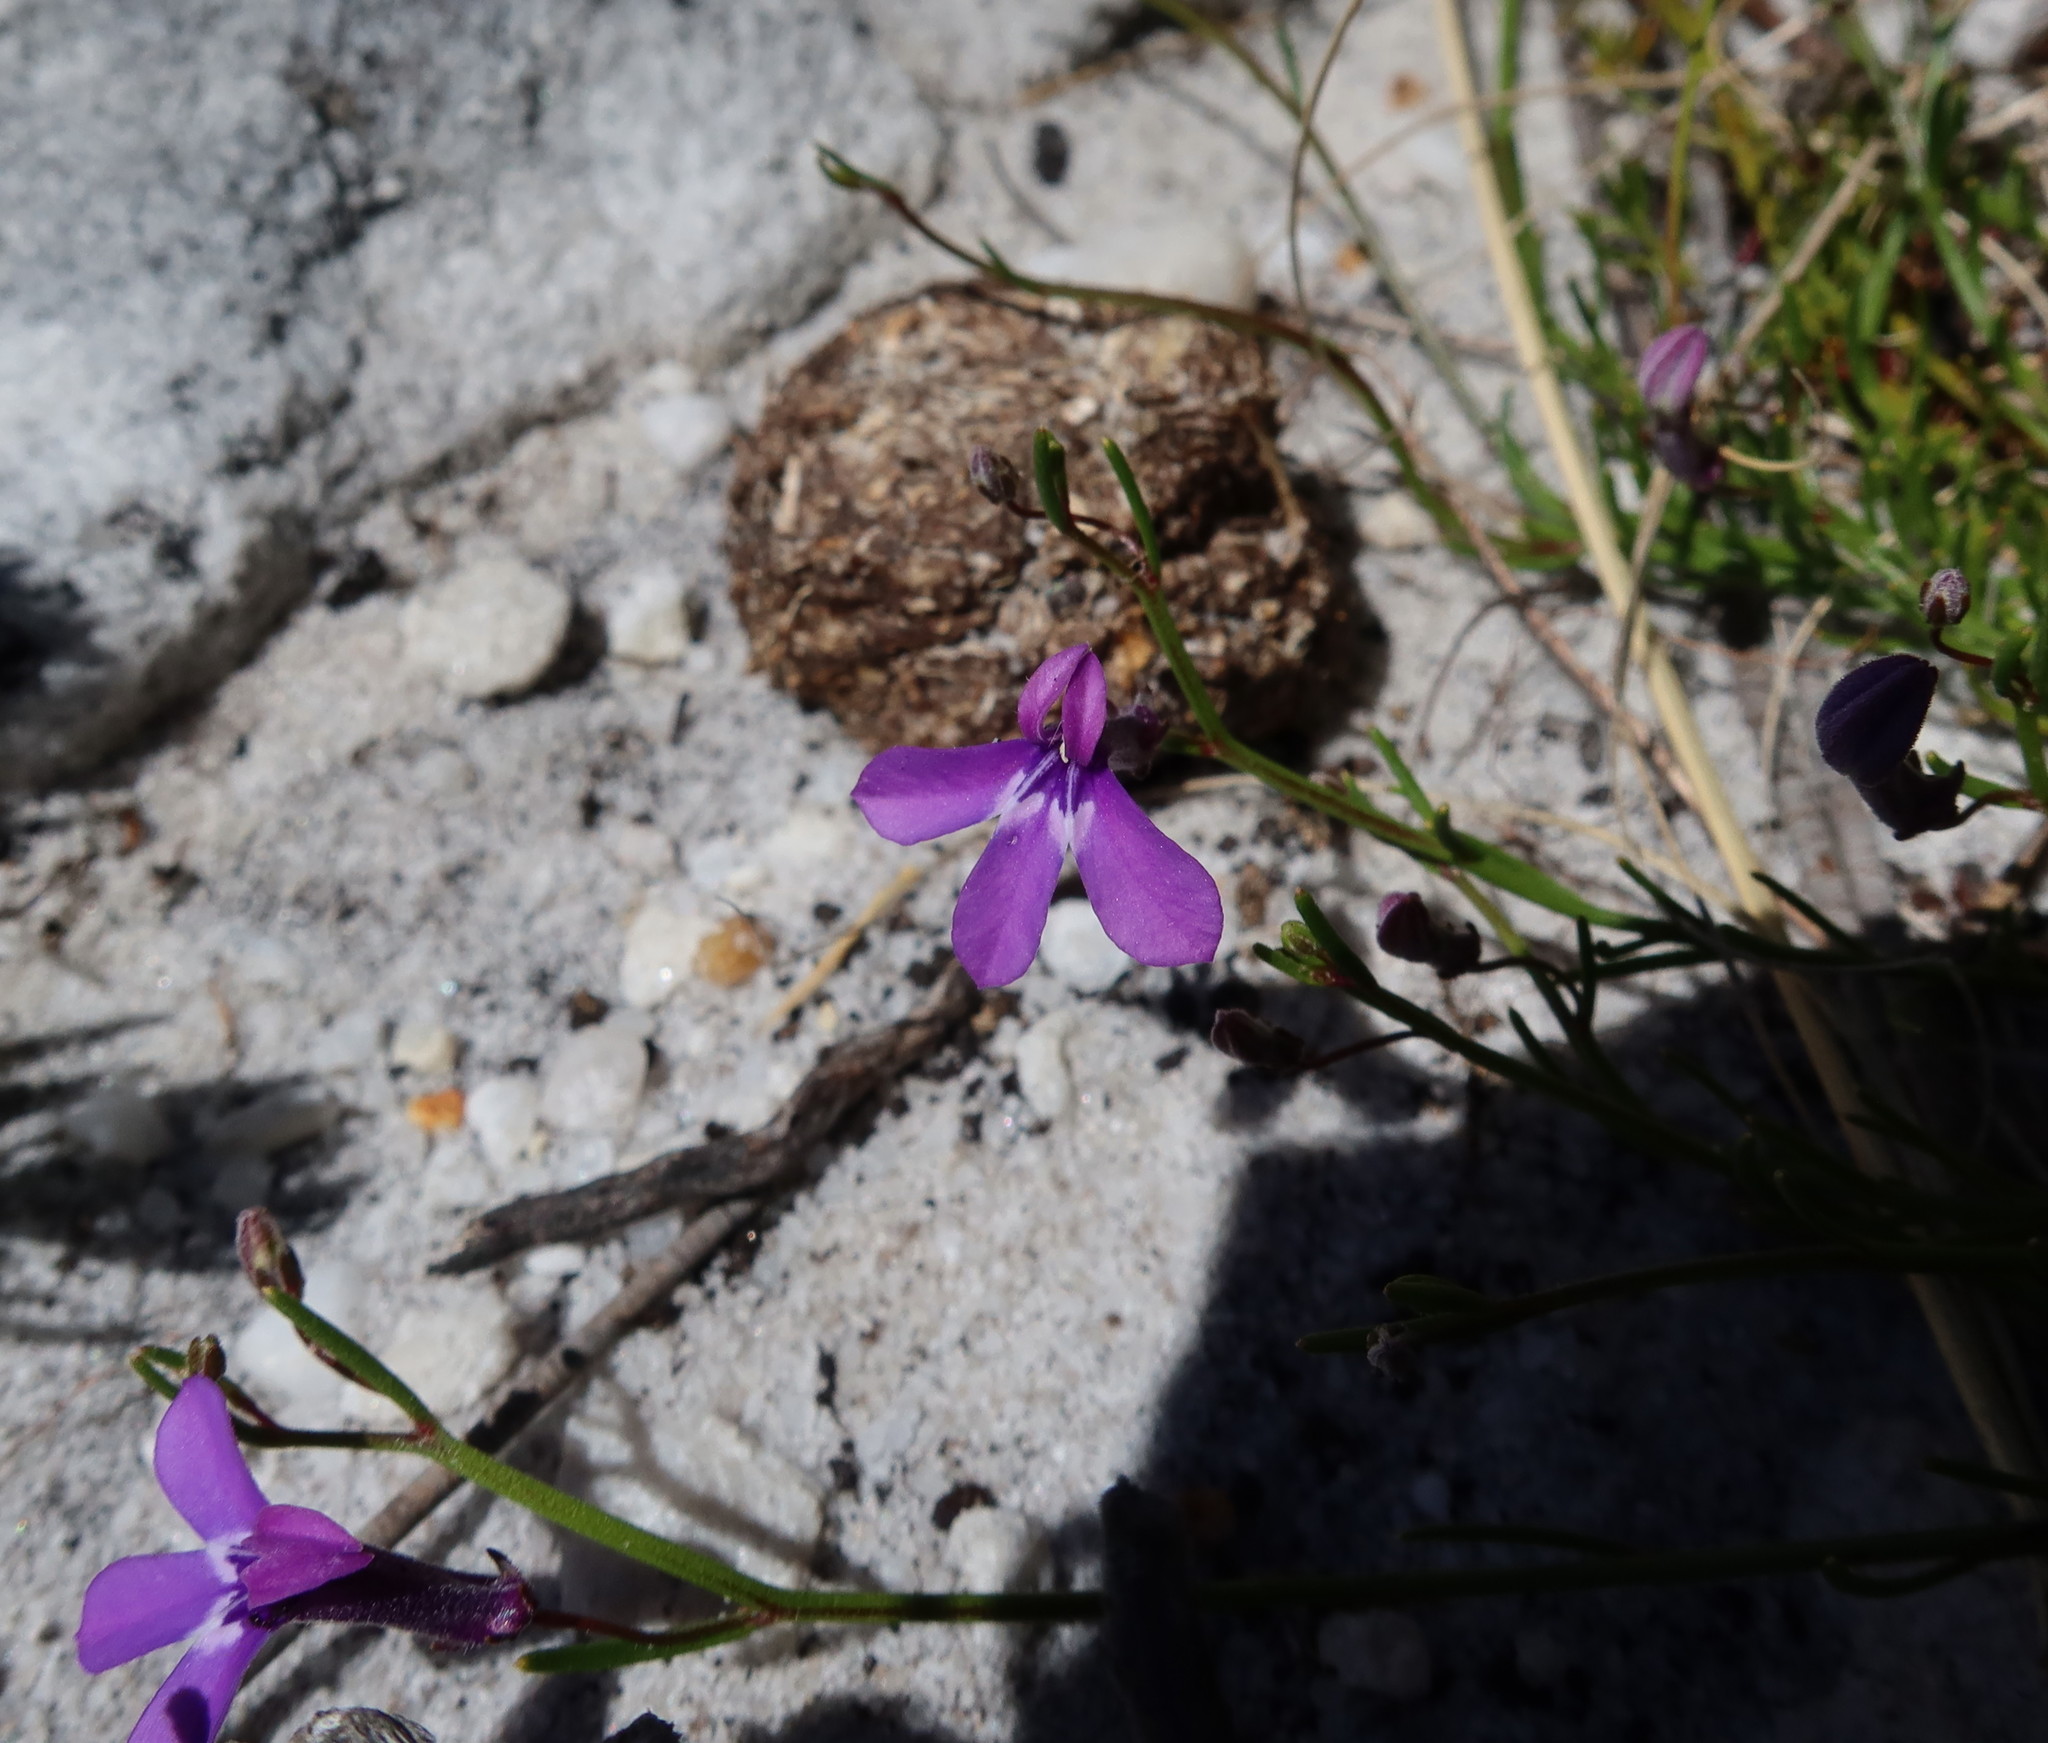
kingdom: Plantae
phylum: Tracheophyta
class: Magnoliopsida
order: Asterales
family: Campanulaceae
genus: Lobelia
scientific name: Lobelia setacea
